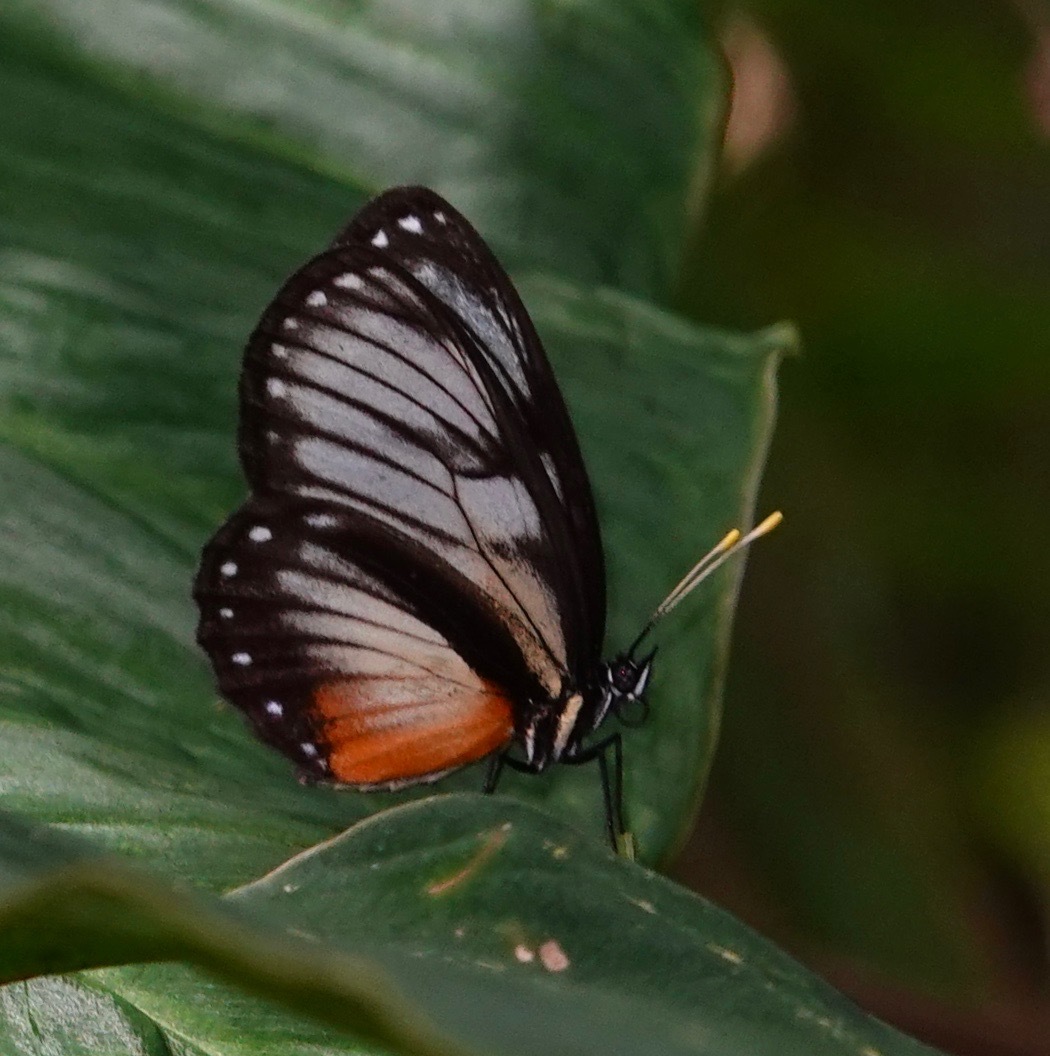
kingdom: Animalia
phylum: Arthropoda
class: Insecta
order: Lepidoptera
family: Nymphalidae
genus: Eresia
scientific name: Eresia datis
